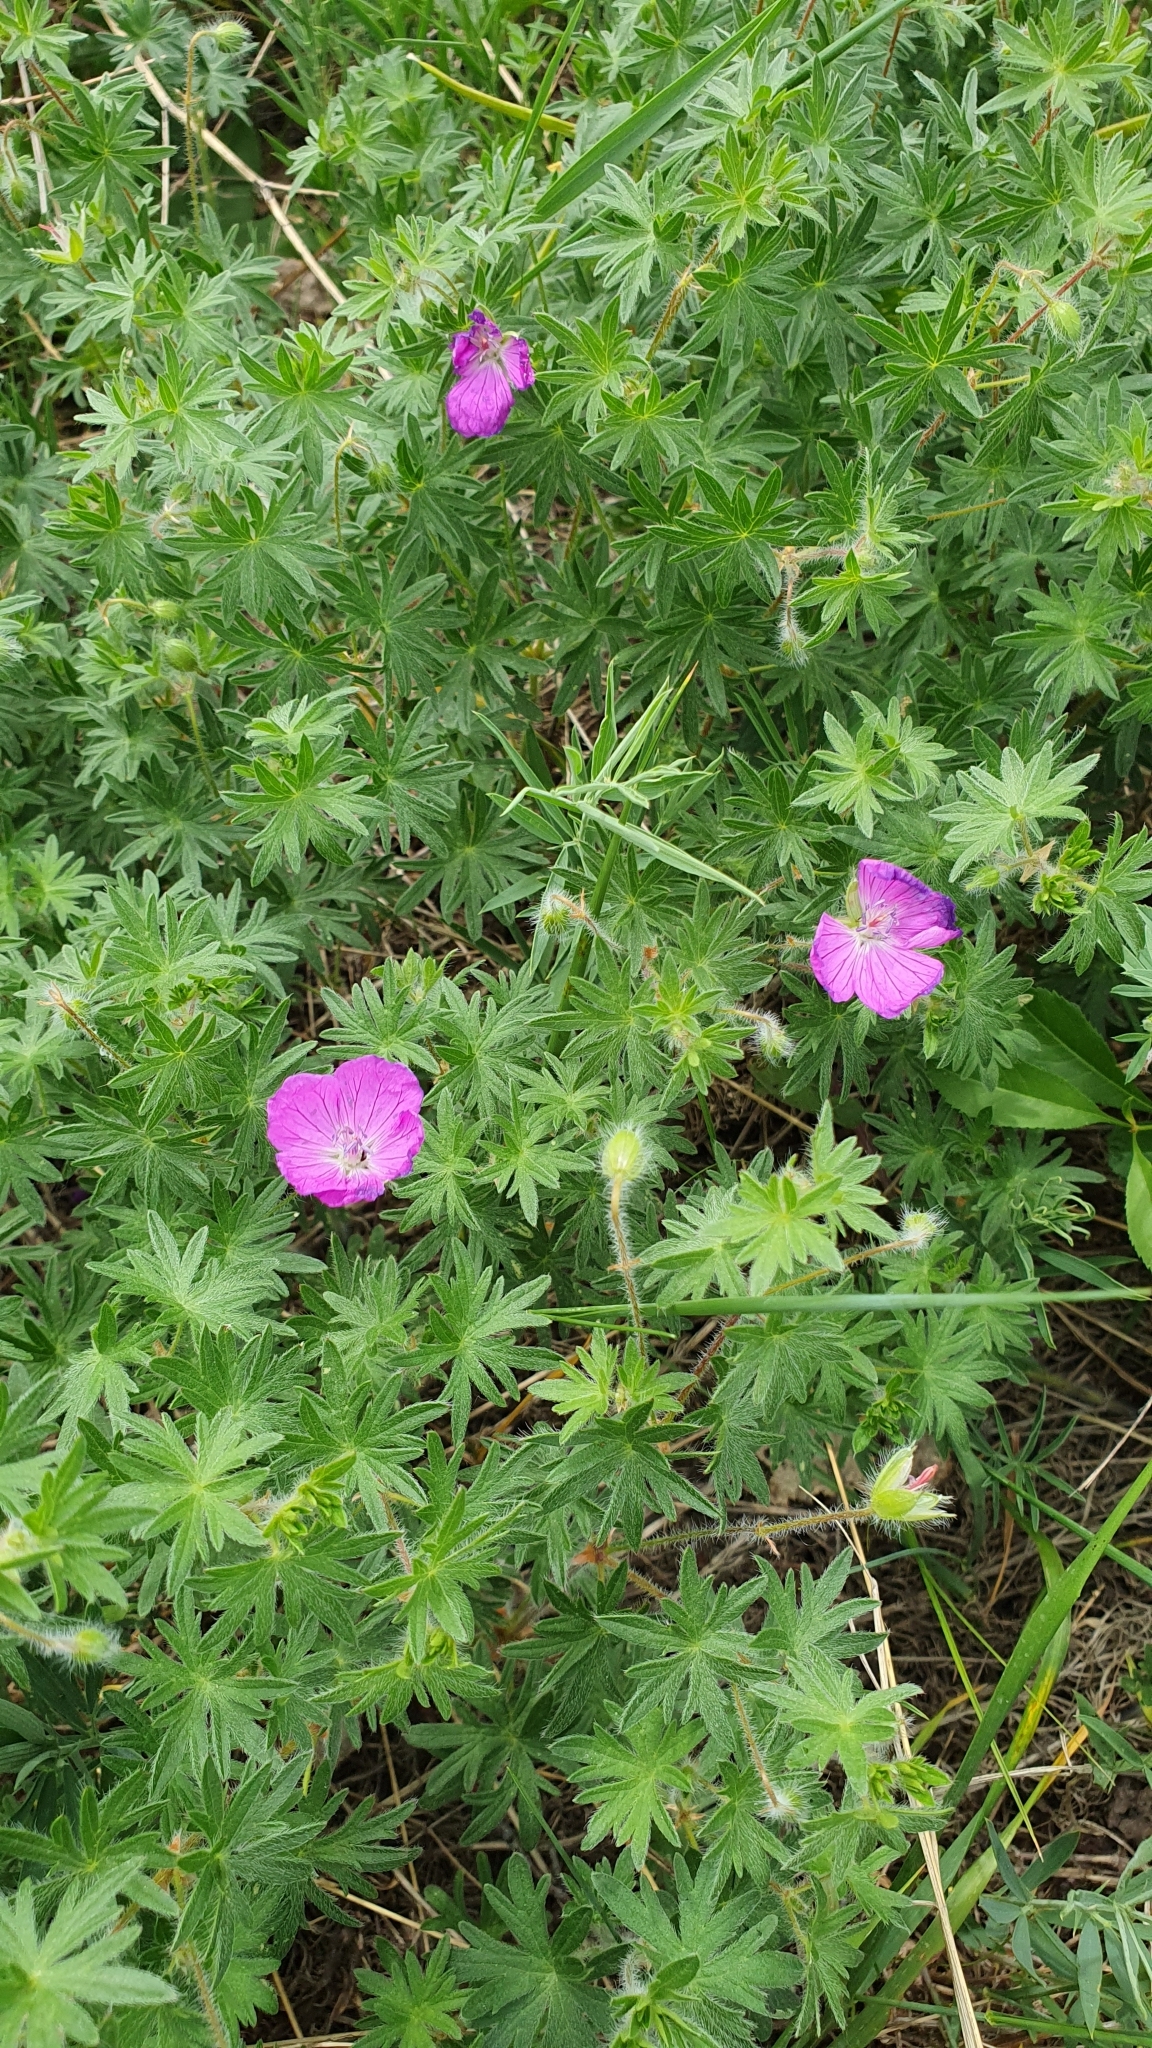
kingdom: Plantae
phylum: Tracheophyta
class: Magnoliopsida
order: Geraniales
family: Geraniaceae
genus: Geranium
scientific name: Geranium sanguineum
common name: Bloody crane's-bill
